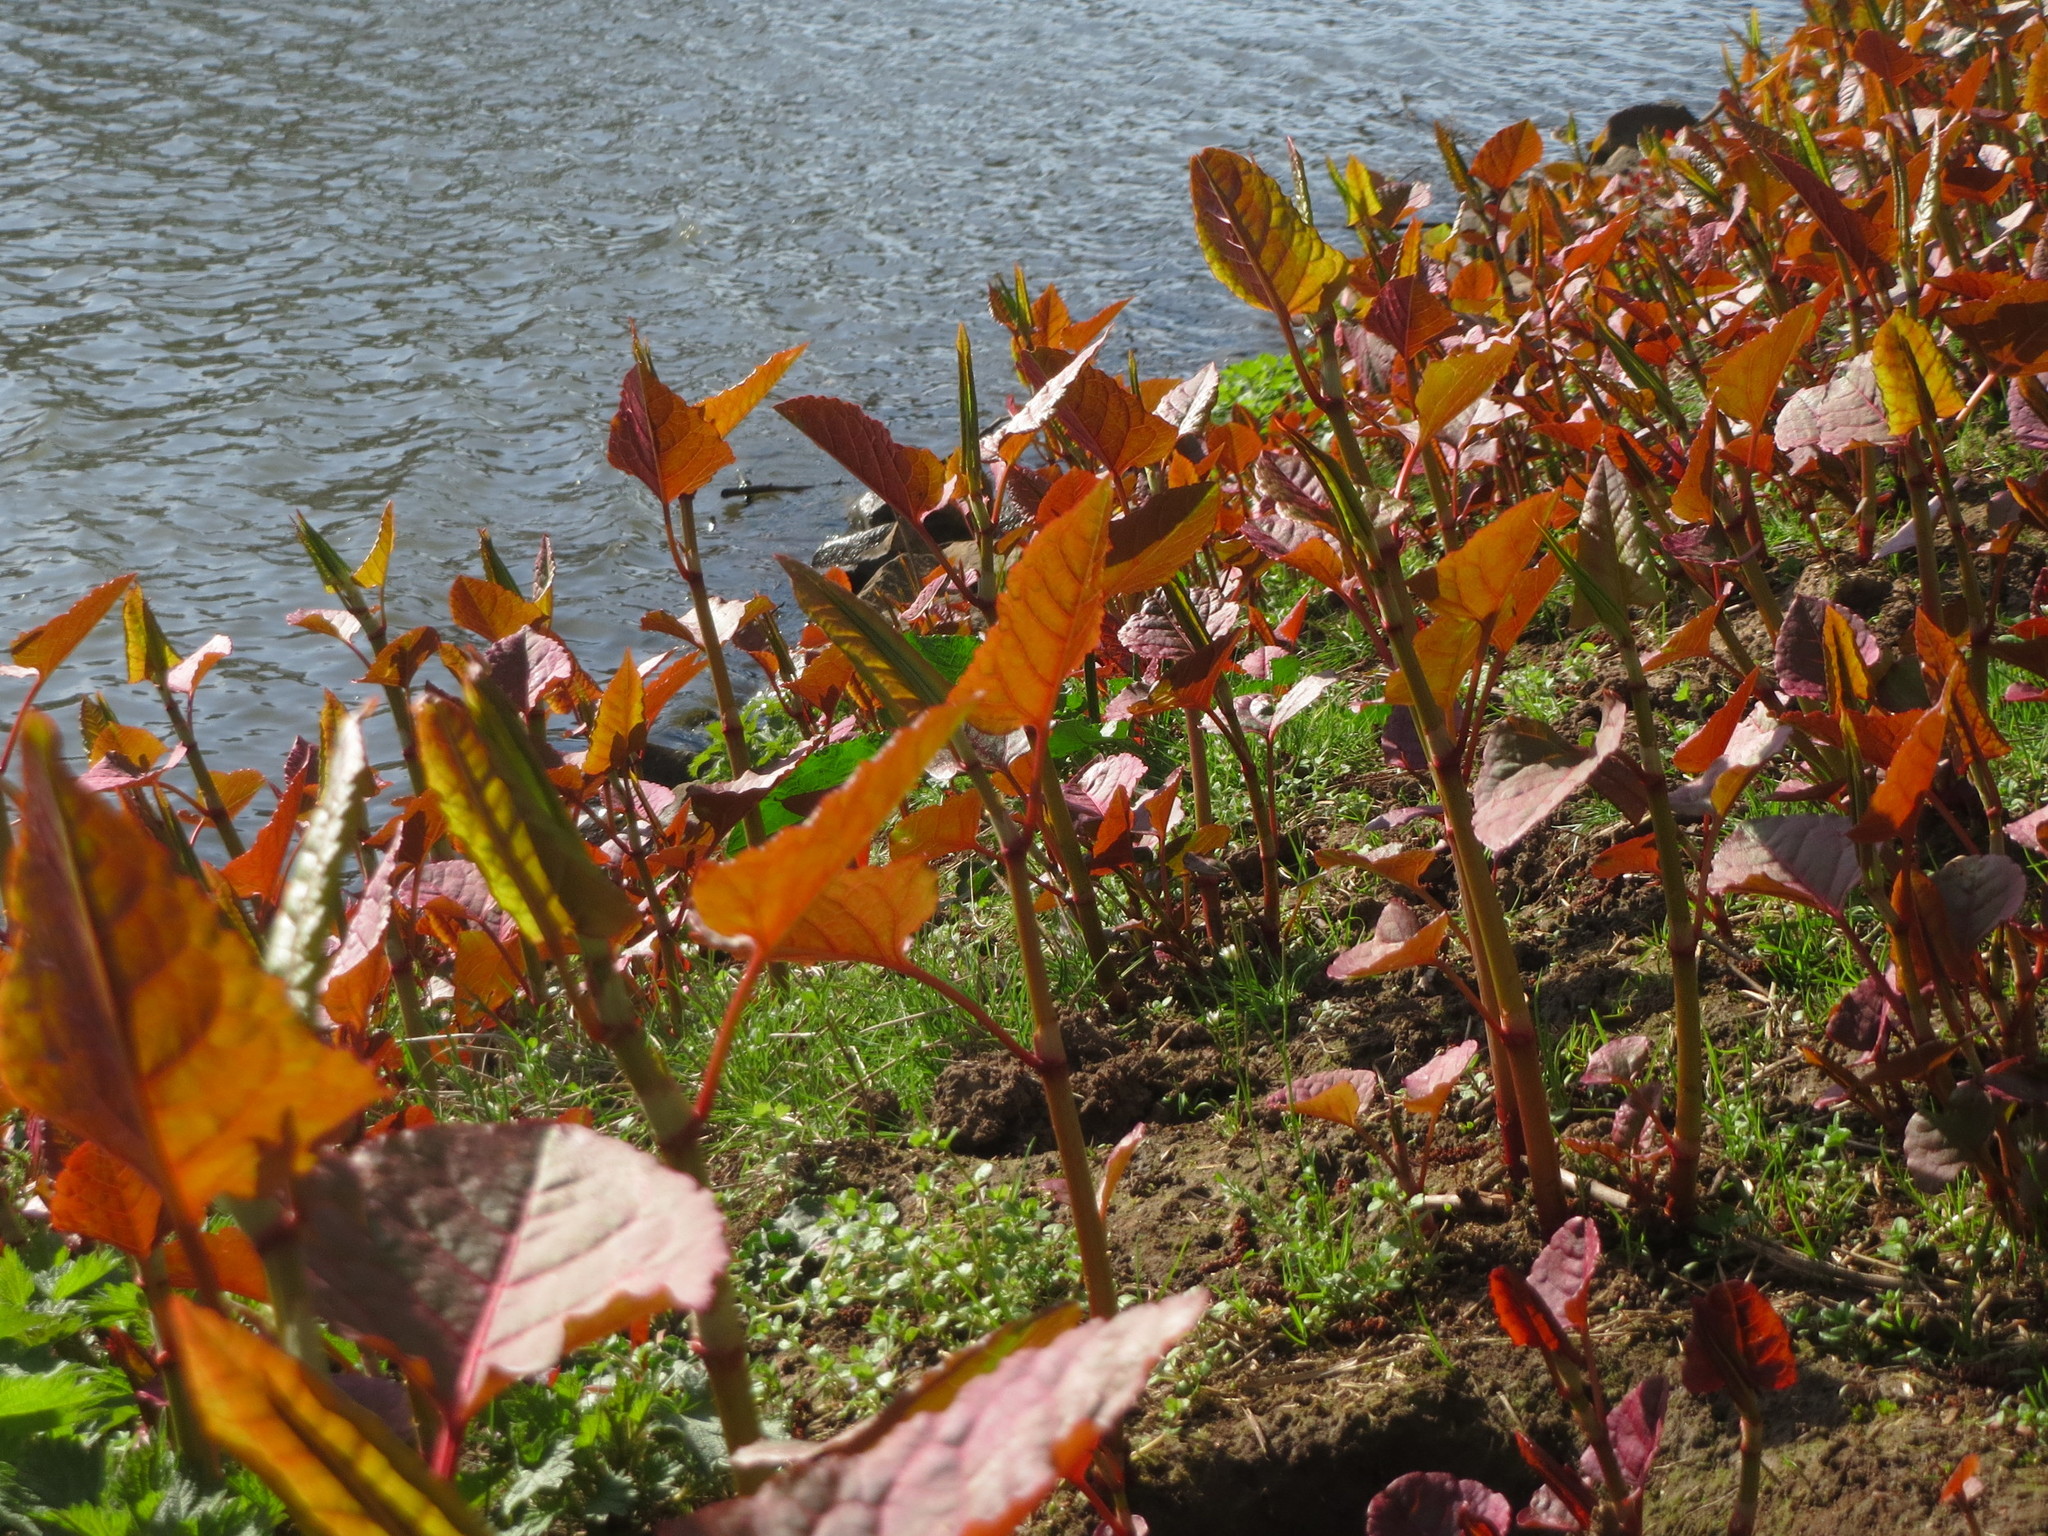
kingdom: Plantae
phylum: Tracheophyta
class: Magnoliopsida
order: Caryophyllales
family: Polygonaceae
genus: Reynoutria
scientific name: Reynoutria japonica
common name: Japanese knotweed
